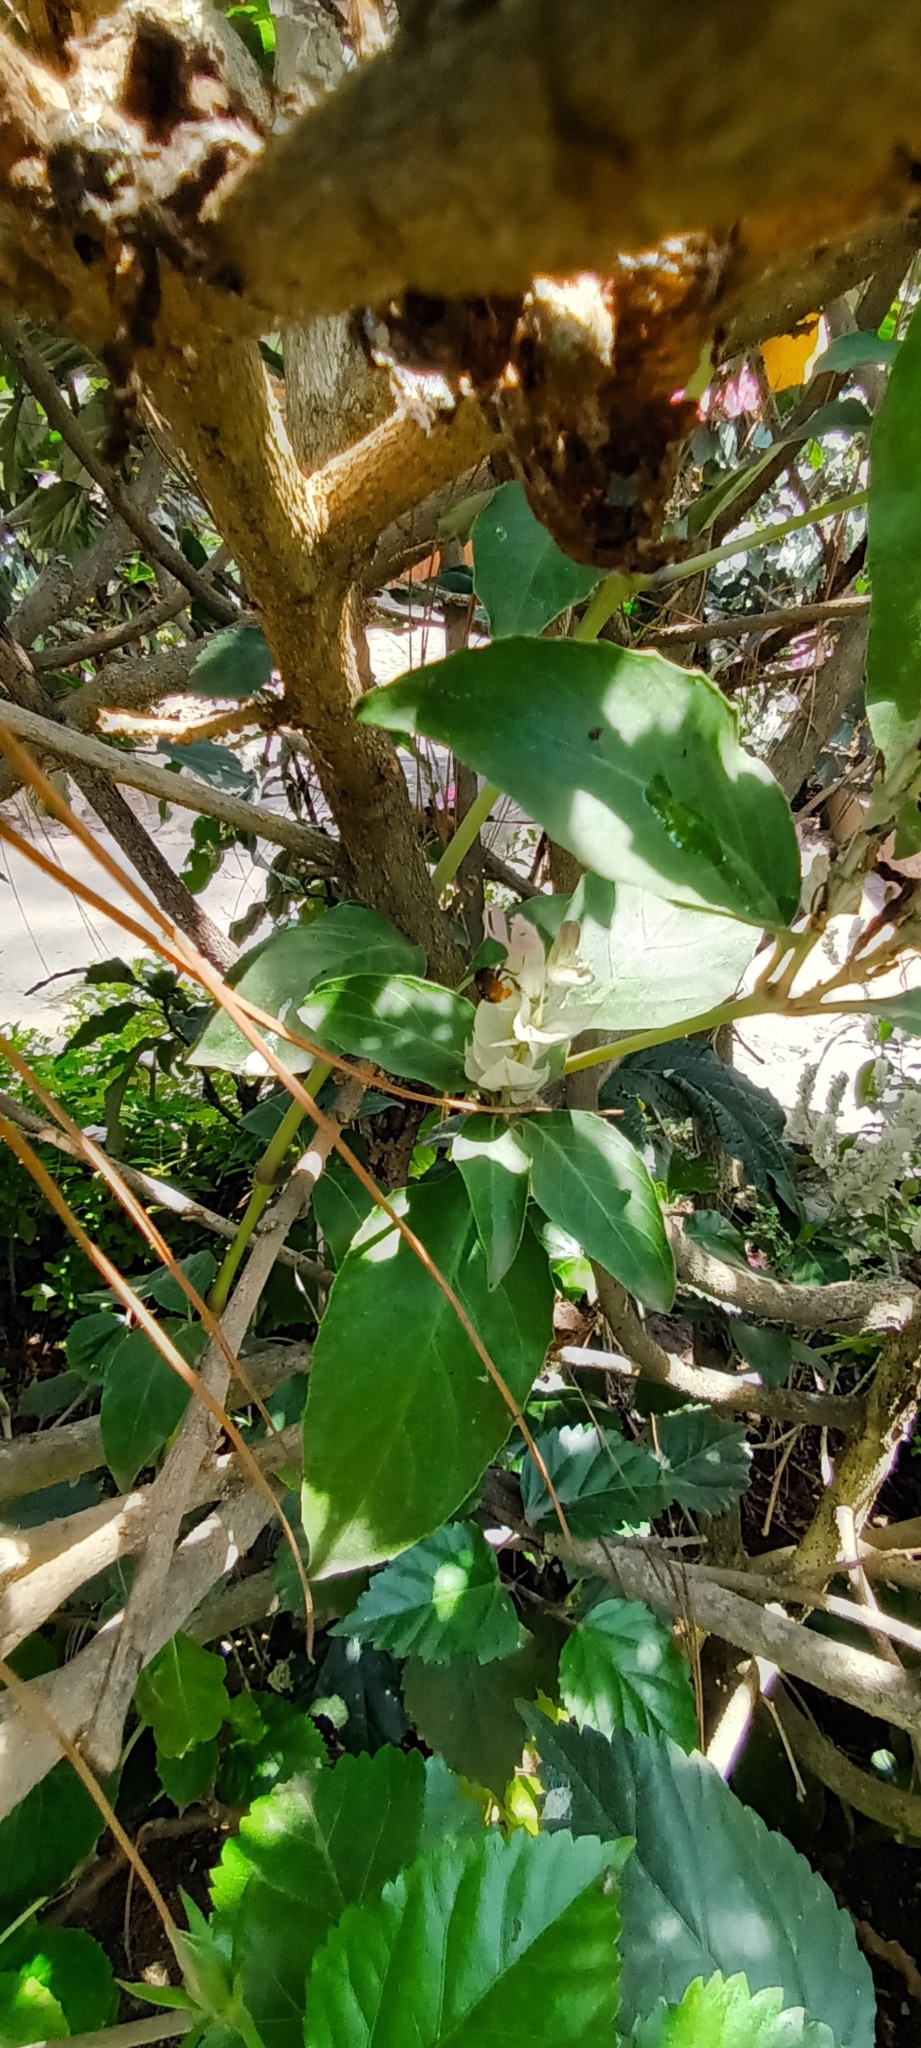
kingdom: Animalia
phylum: Arthropoda
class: Insecta
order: Hymenoptera
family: Apidae
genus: Trigona
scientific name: Trigona fulviventris
